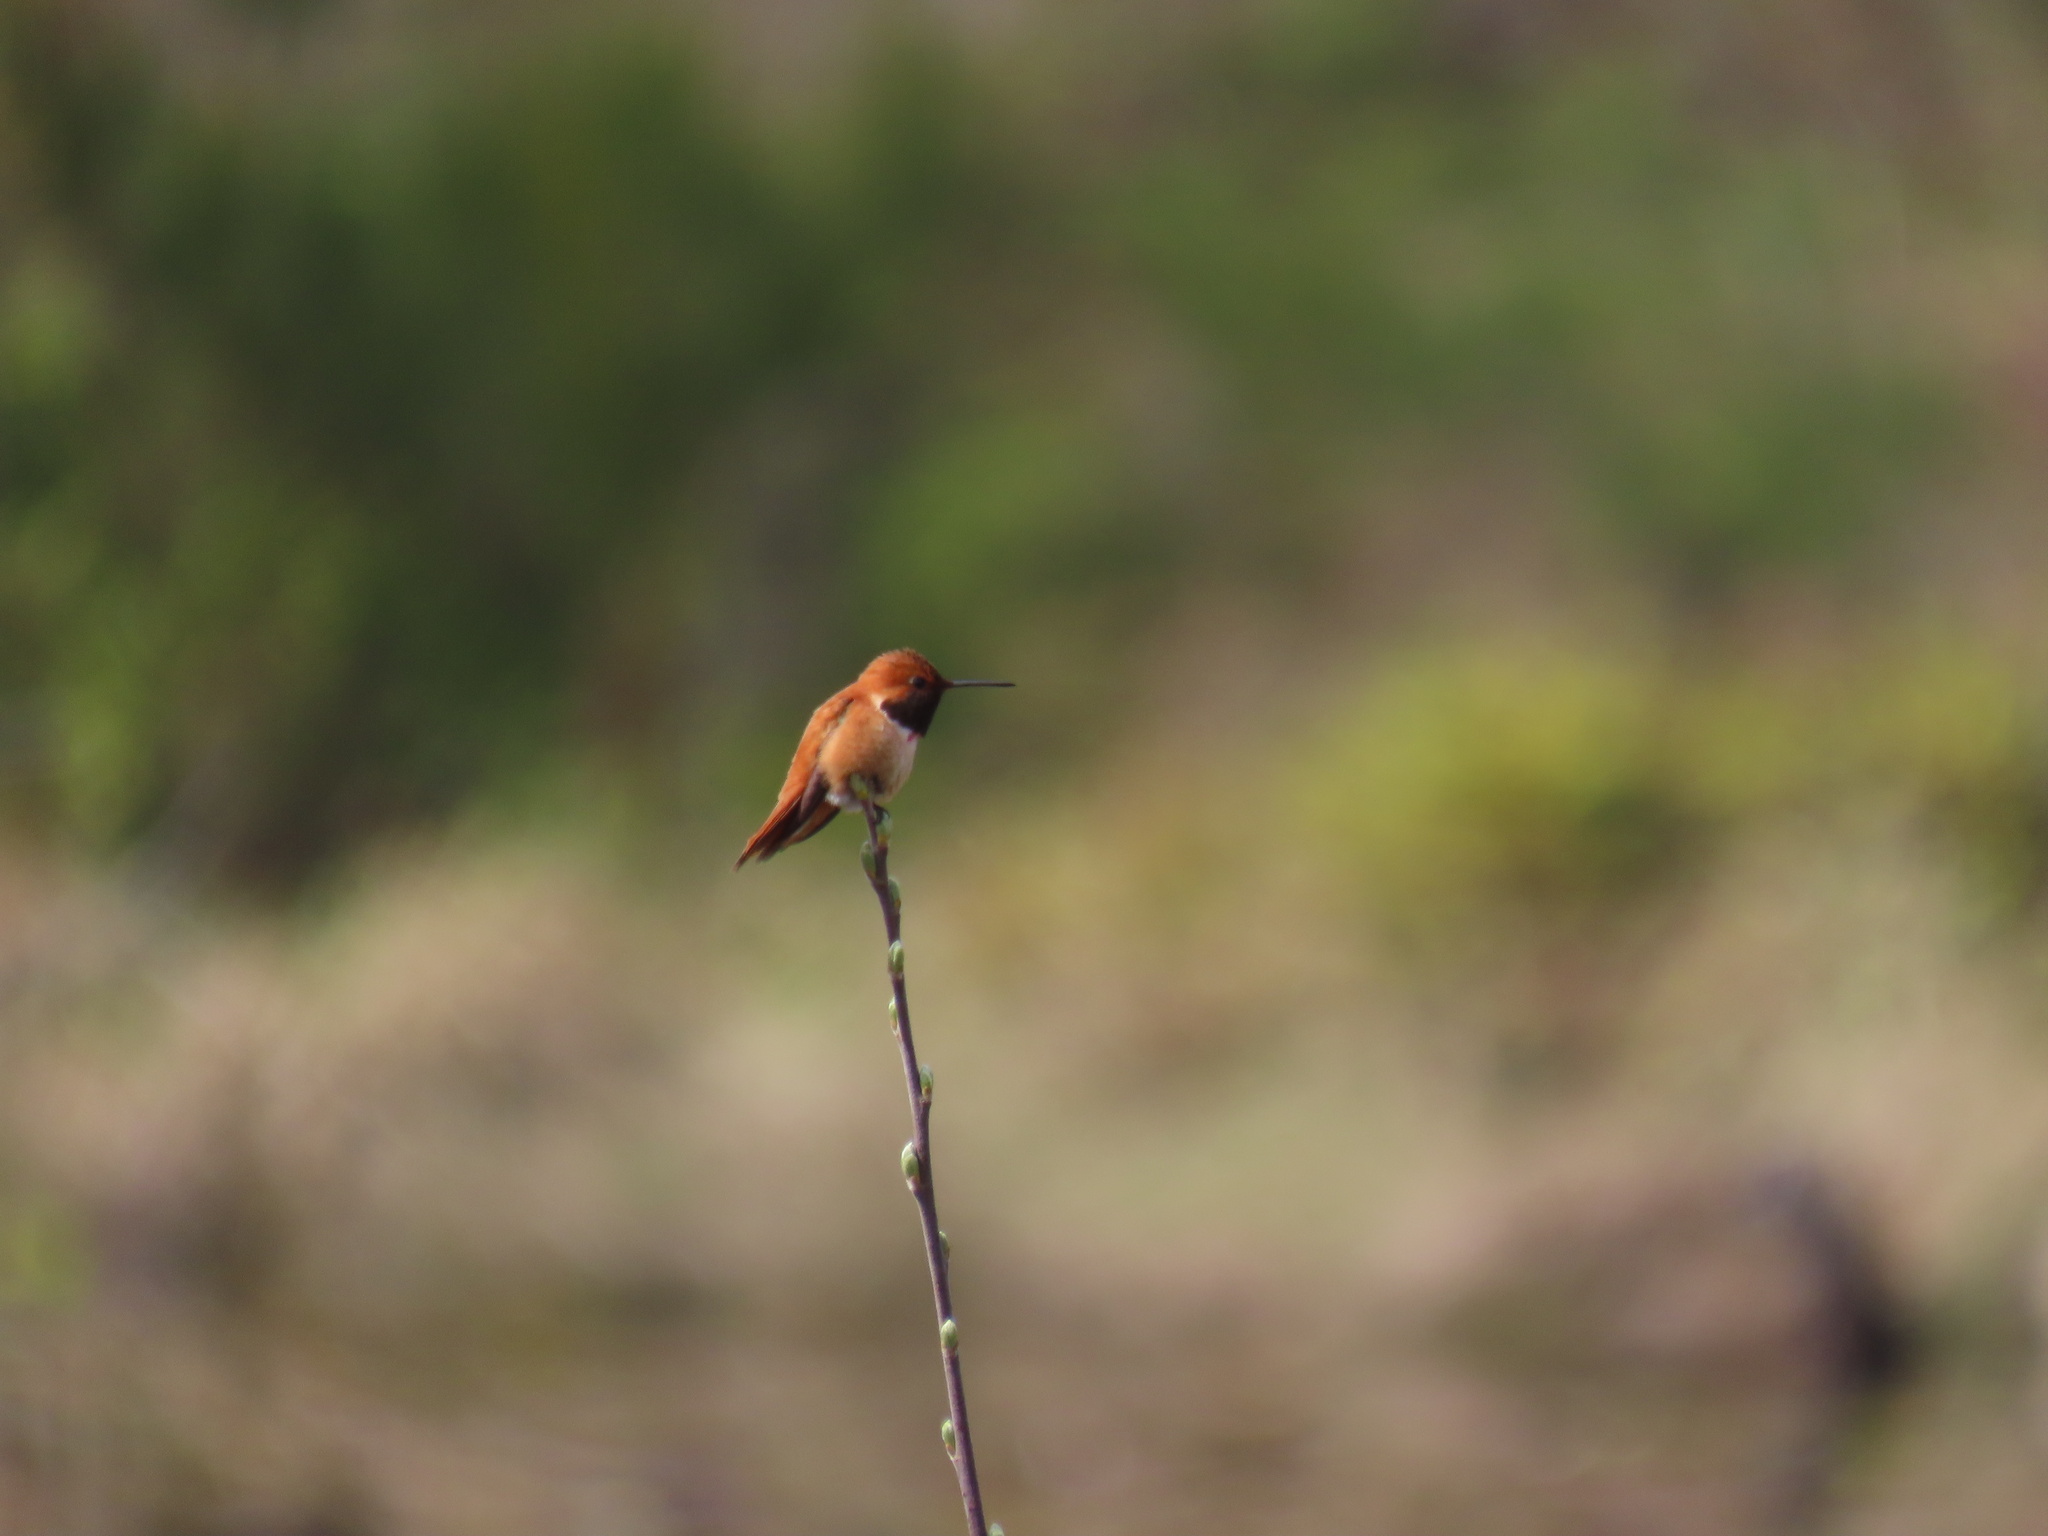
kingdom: Animalia
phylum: Chordata
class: Aves
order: Apodiformes
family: Trochilidae
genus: Selasphorus
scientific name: Selasphorus rufus
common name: Rufous hummingbird
